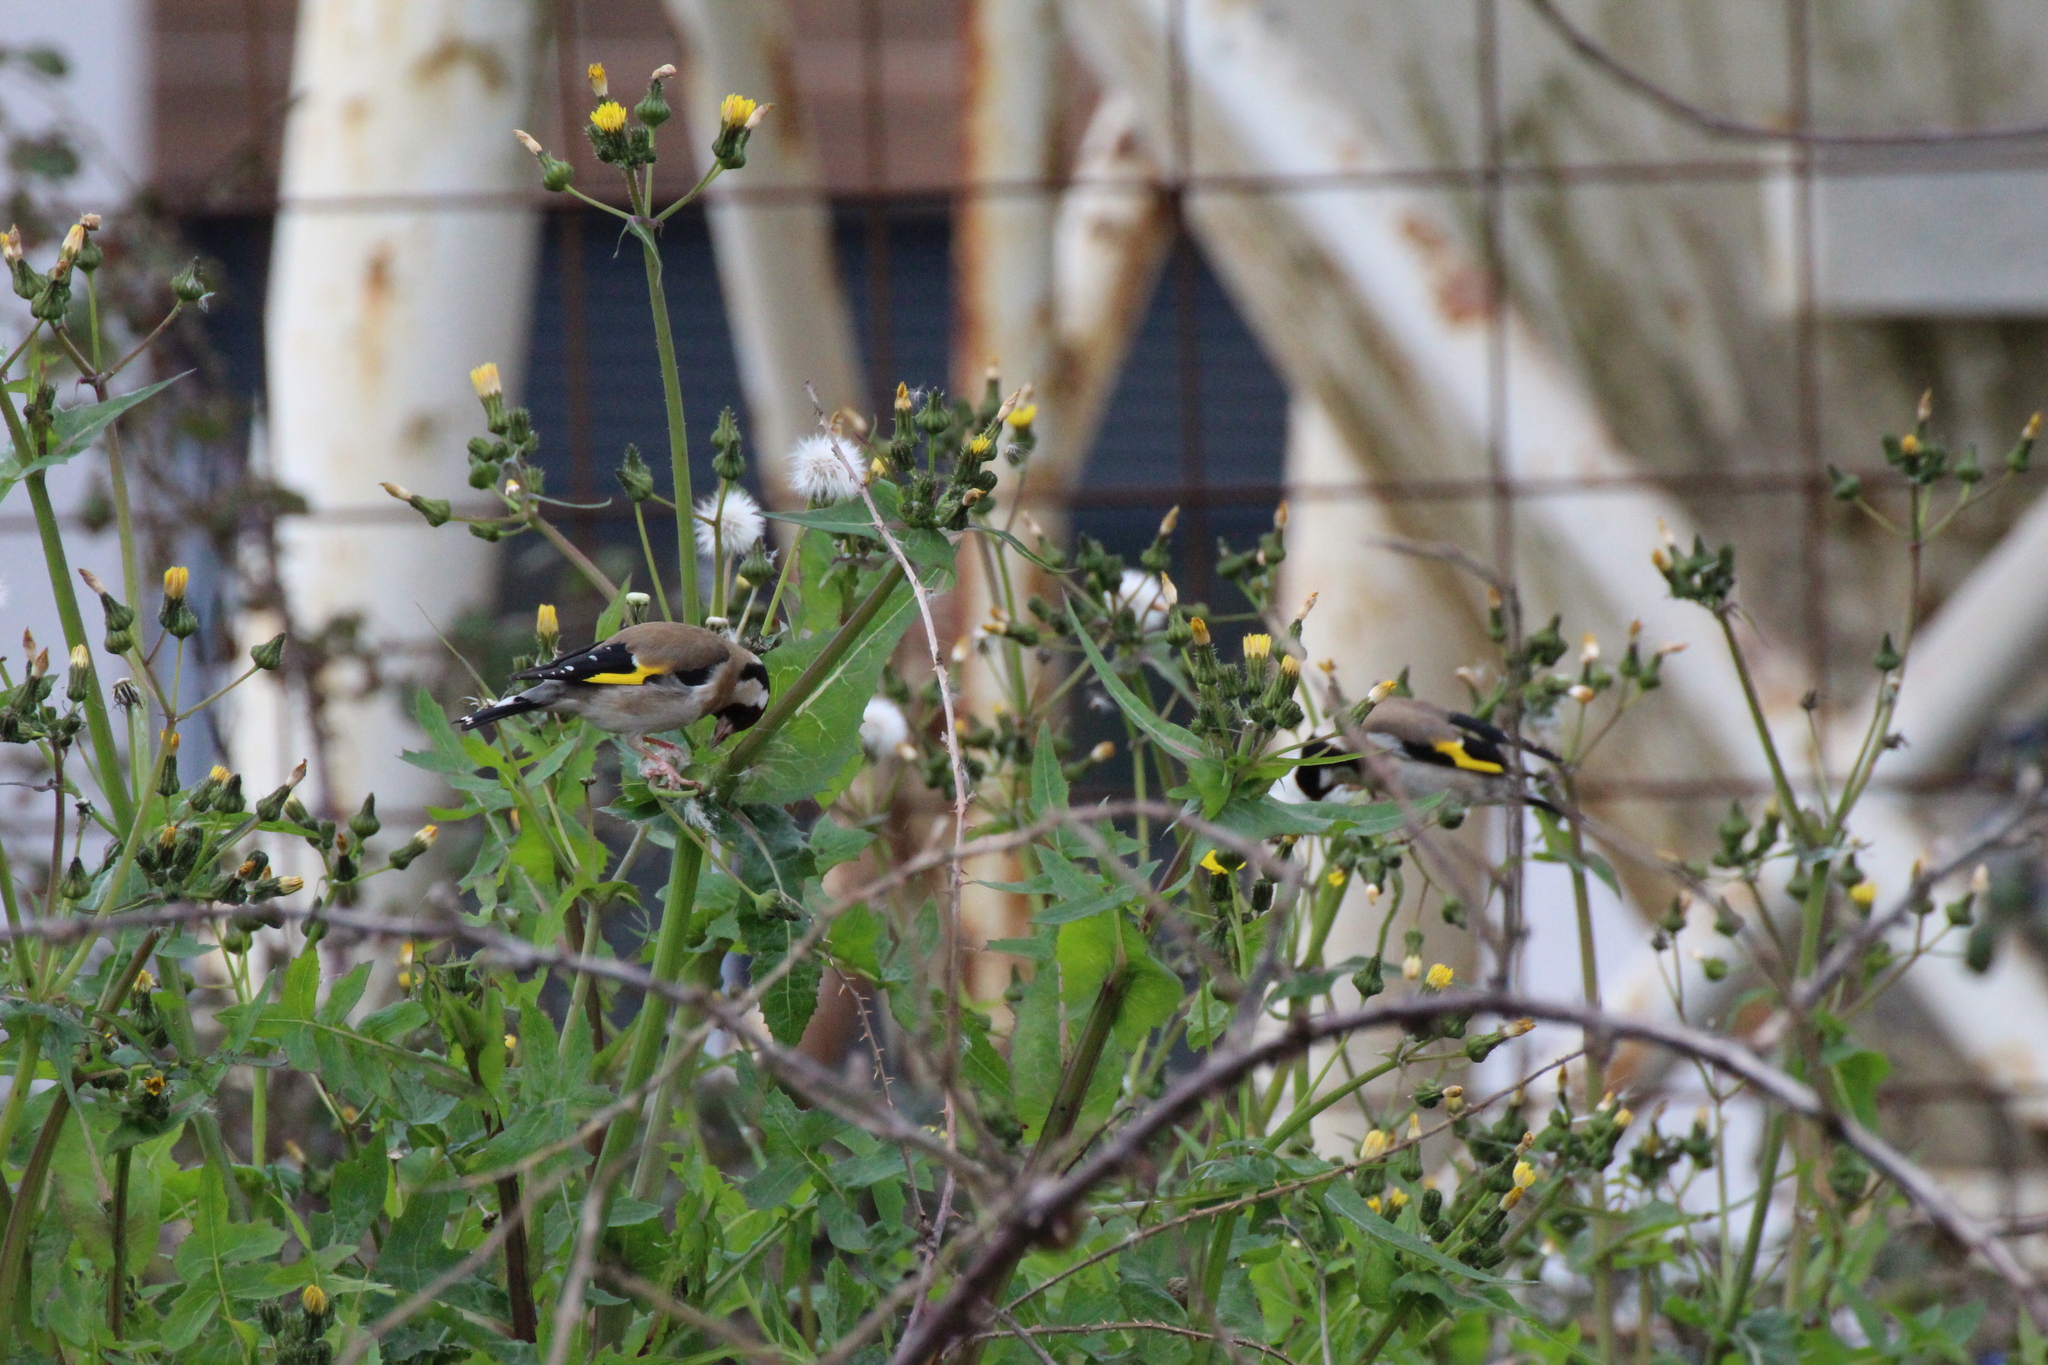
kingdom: Animalia
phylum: Chordata
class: Aves
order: Passeriformes
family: Fringillidae
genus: Carduelis
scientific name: Carduelis carduelis
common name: European goldfinch
